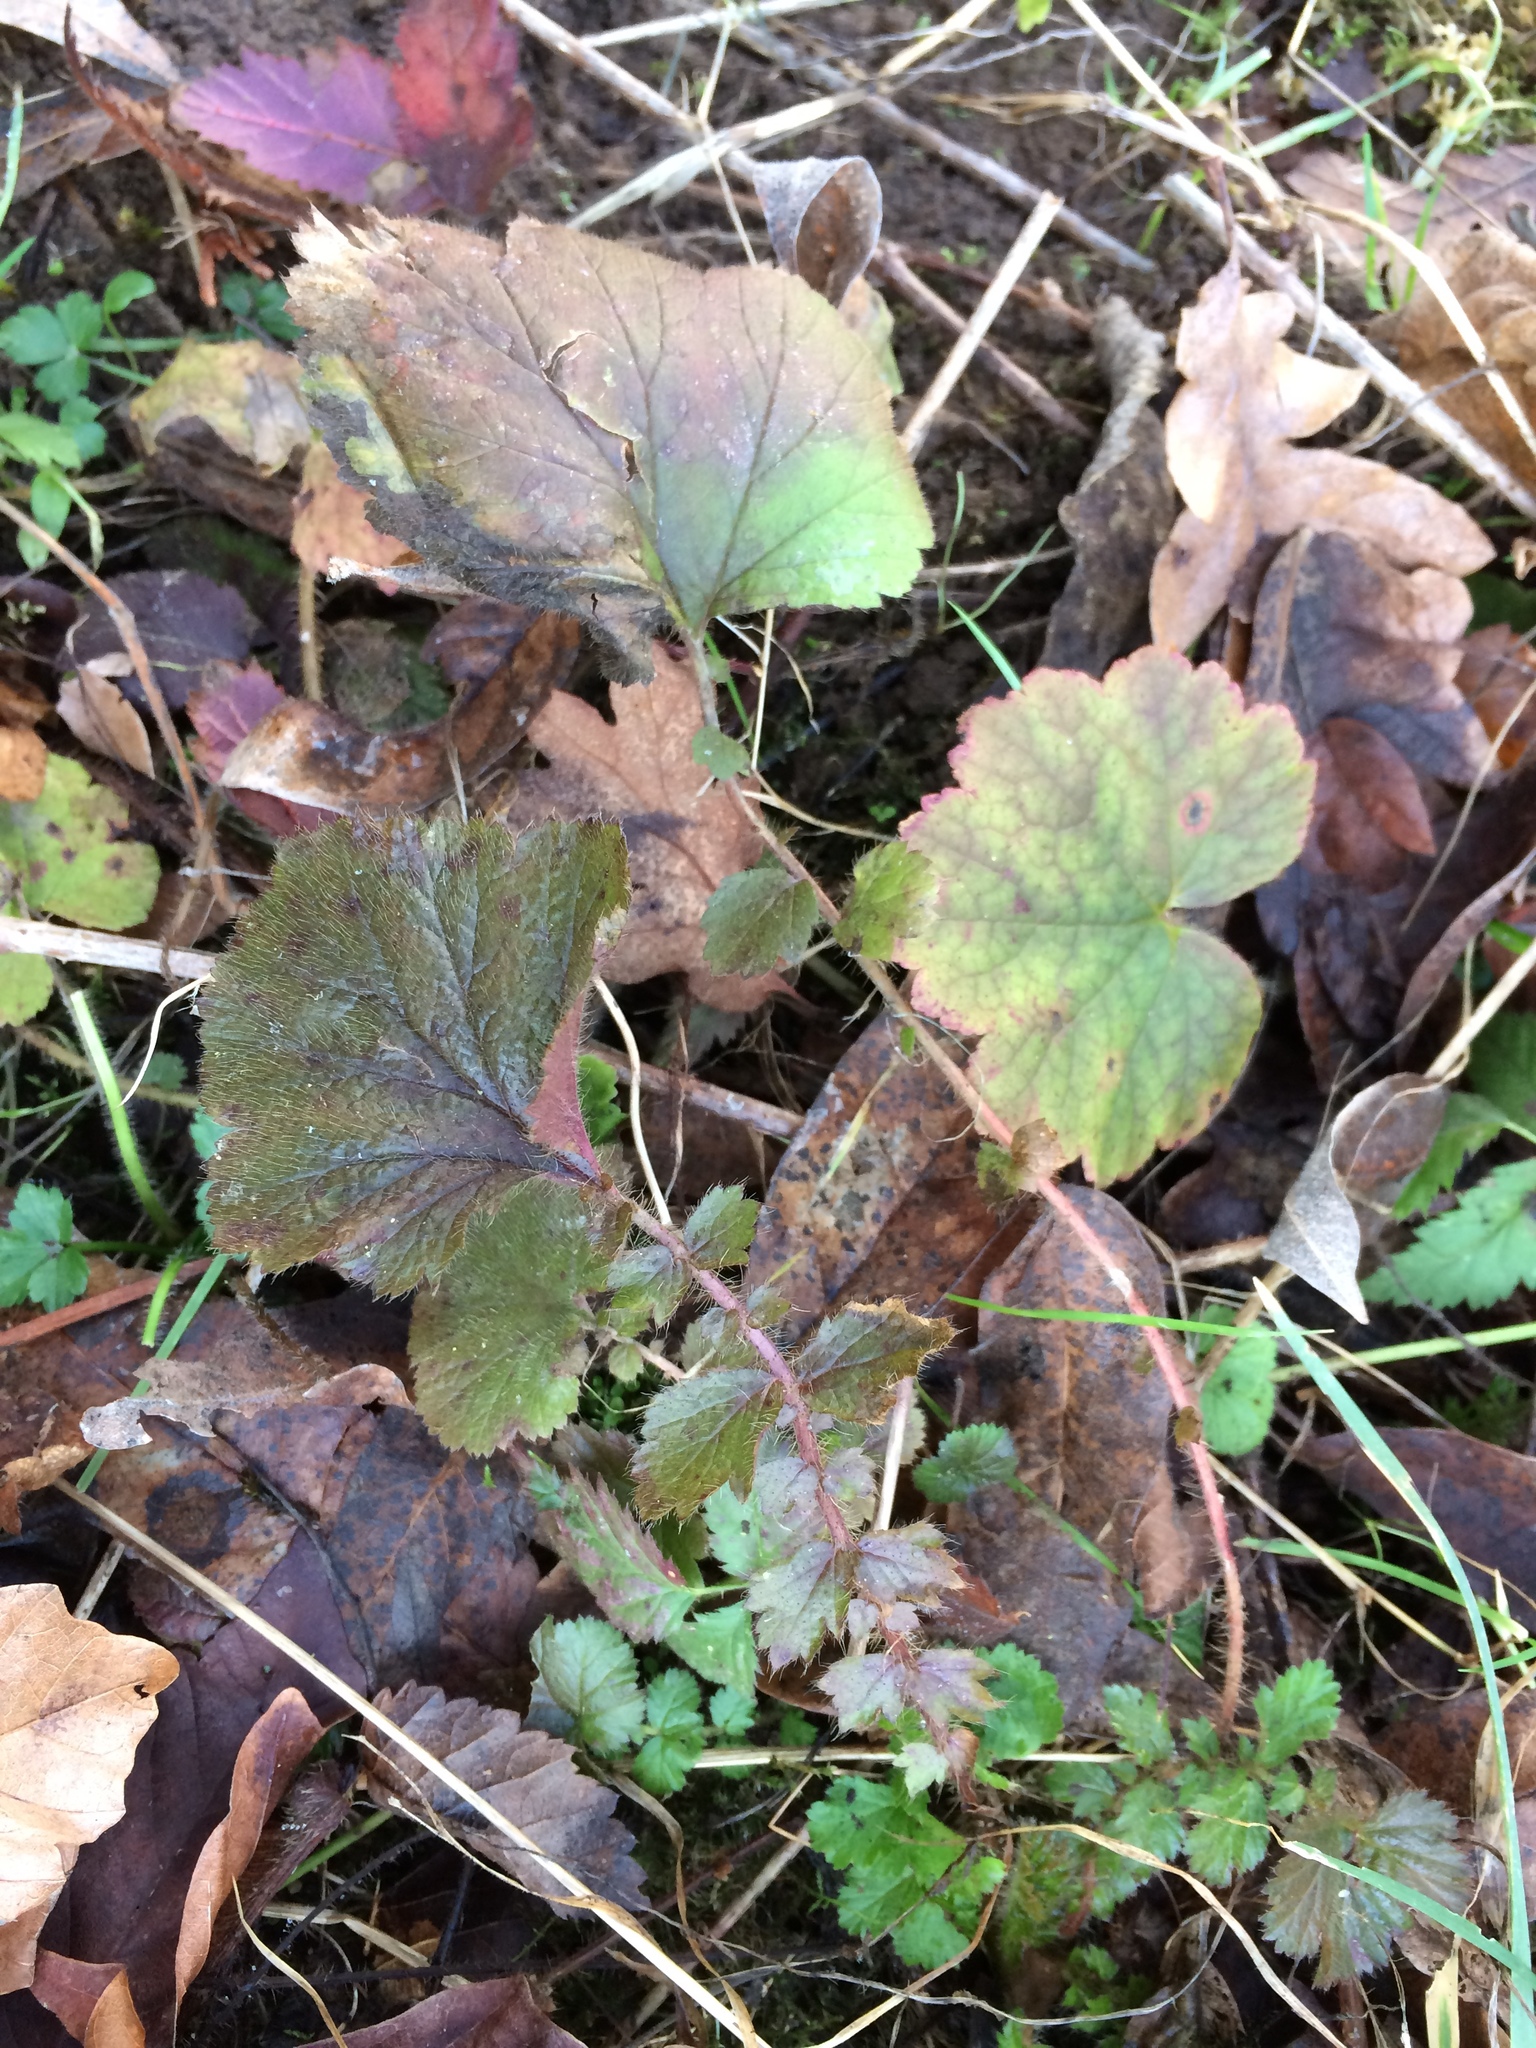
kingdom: Plantae
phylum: Tracheophyta
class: Magnoliopsida
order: Saxifragales
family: Saxifragaceae
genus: Tellima
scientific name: Tellima grandiflora
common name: Fringecups
